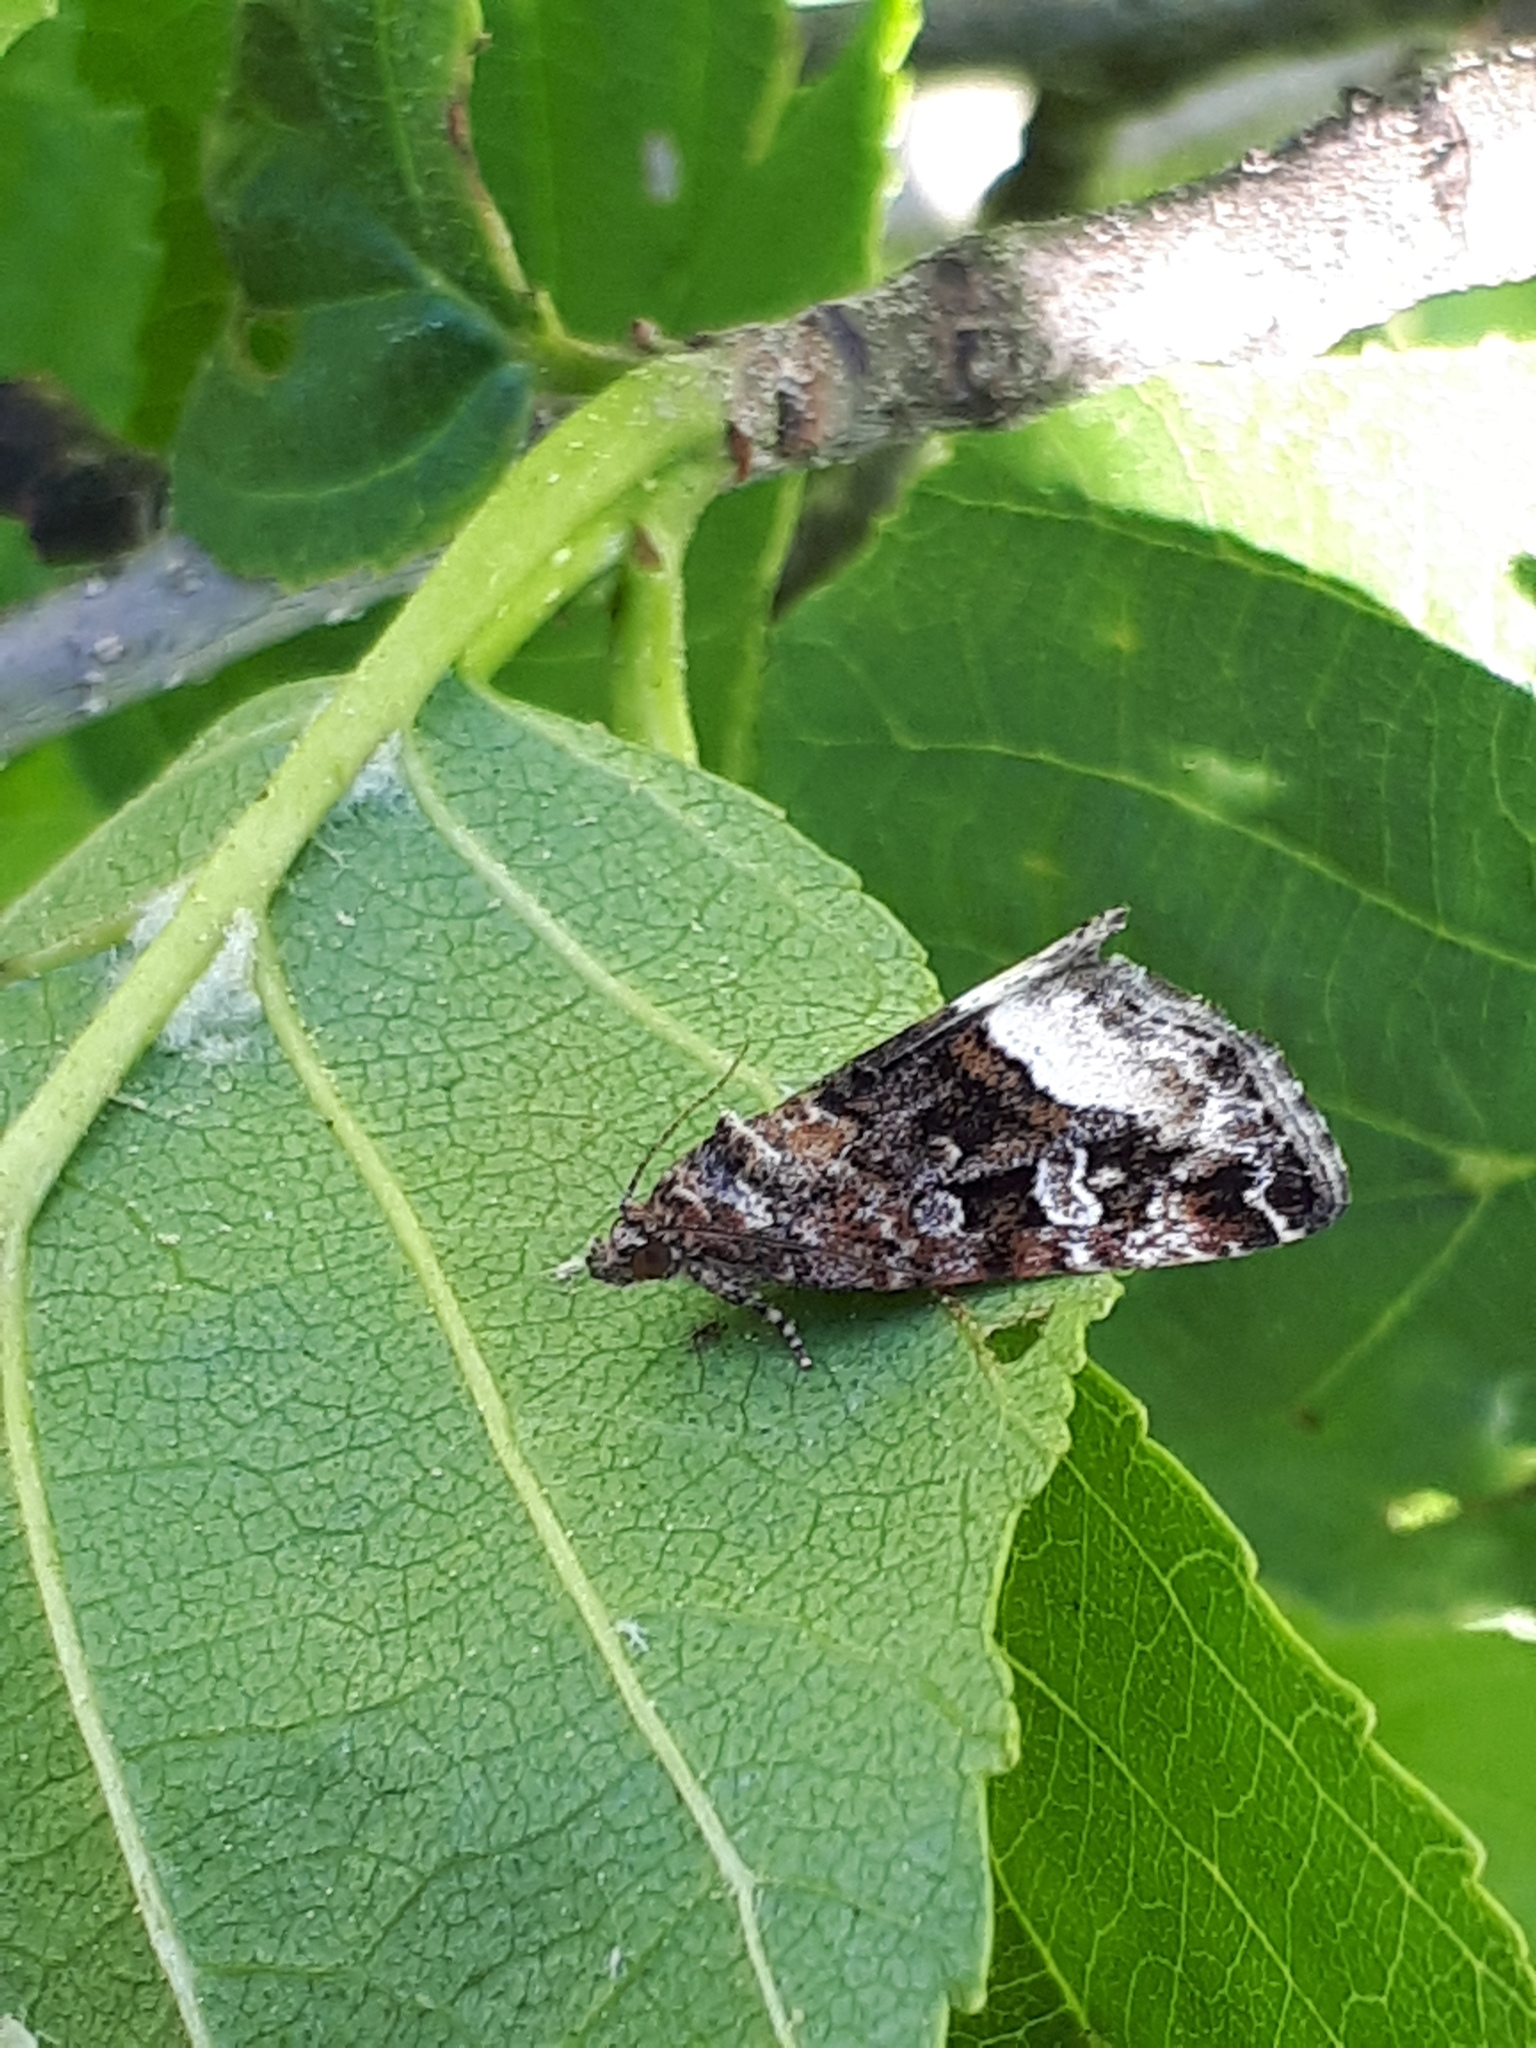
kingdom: Animalia
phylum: Arthropoda
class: Insecta
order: Lepidoptera
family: Noctuidae
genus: Deltote
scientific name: Deltote pygarga
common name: Marbled white spot
